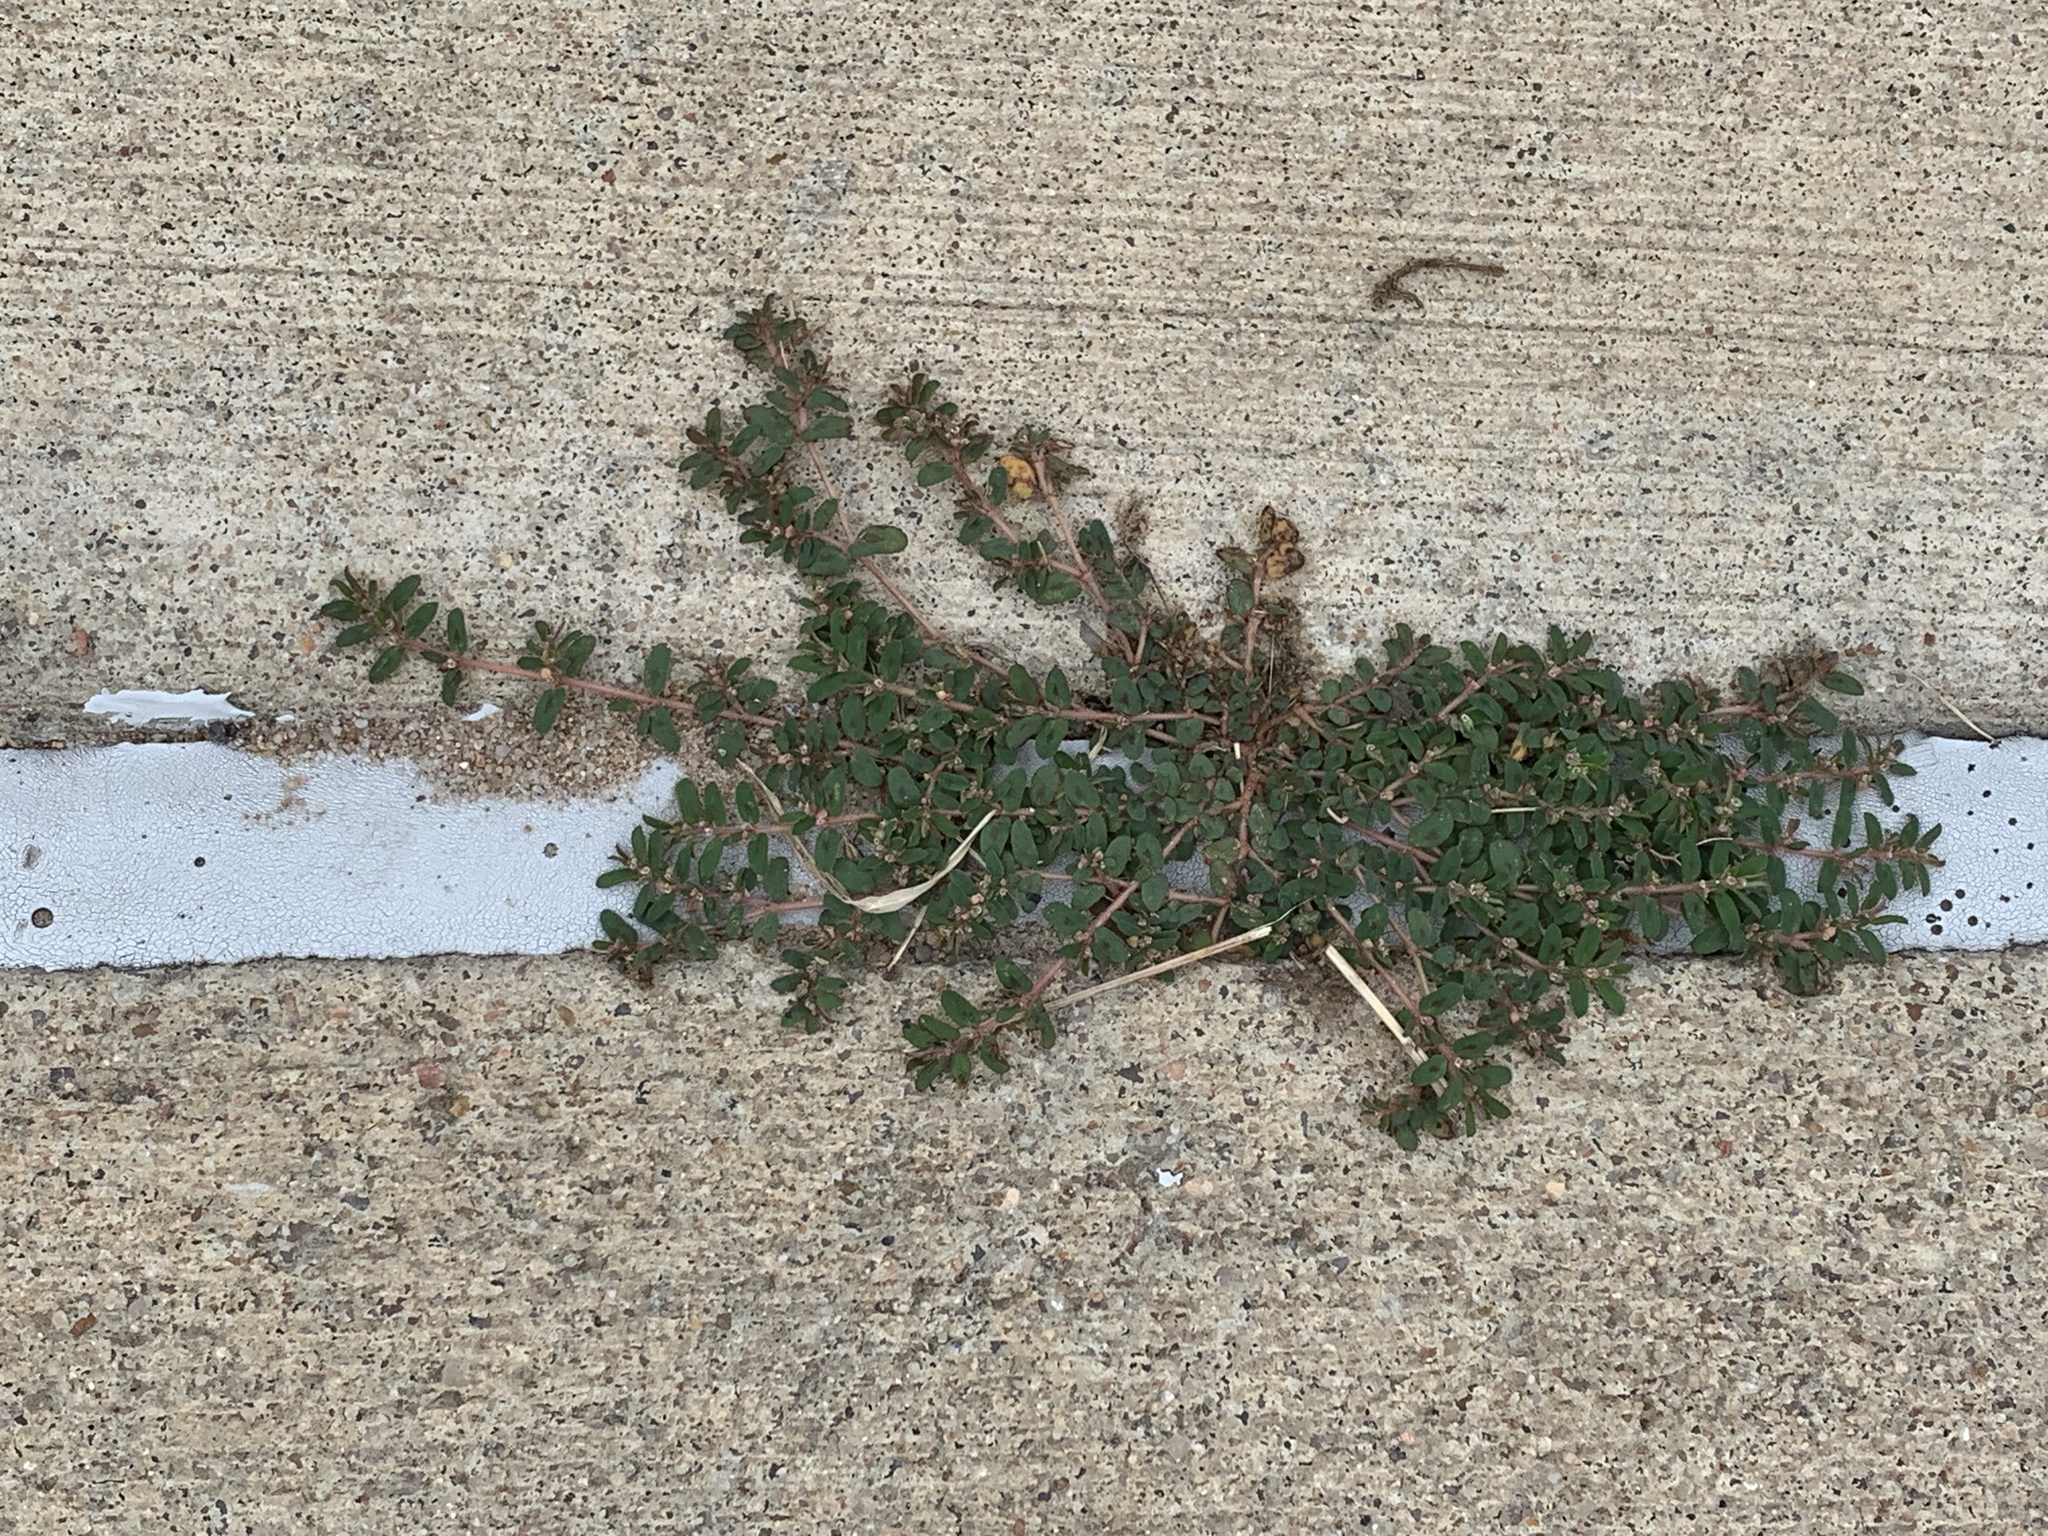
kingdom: Plantae
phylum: Tracheophyta
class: Magnoliopsida
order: Malpighiales
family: Euphorbiaceae
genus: Euphorbia
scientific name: Euphorbia maculata
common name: Spotted spurge
